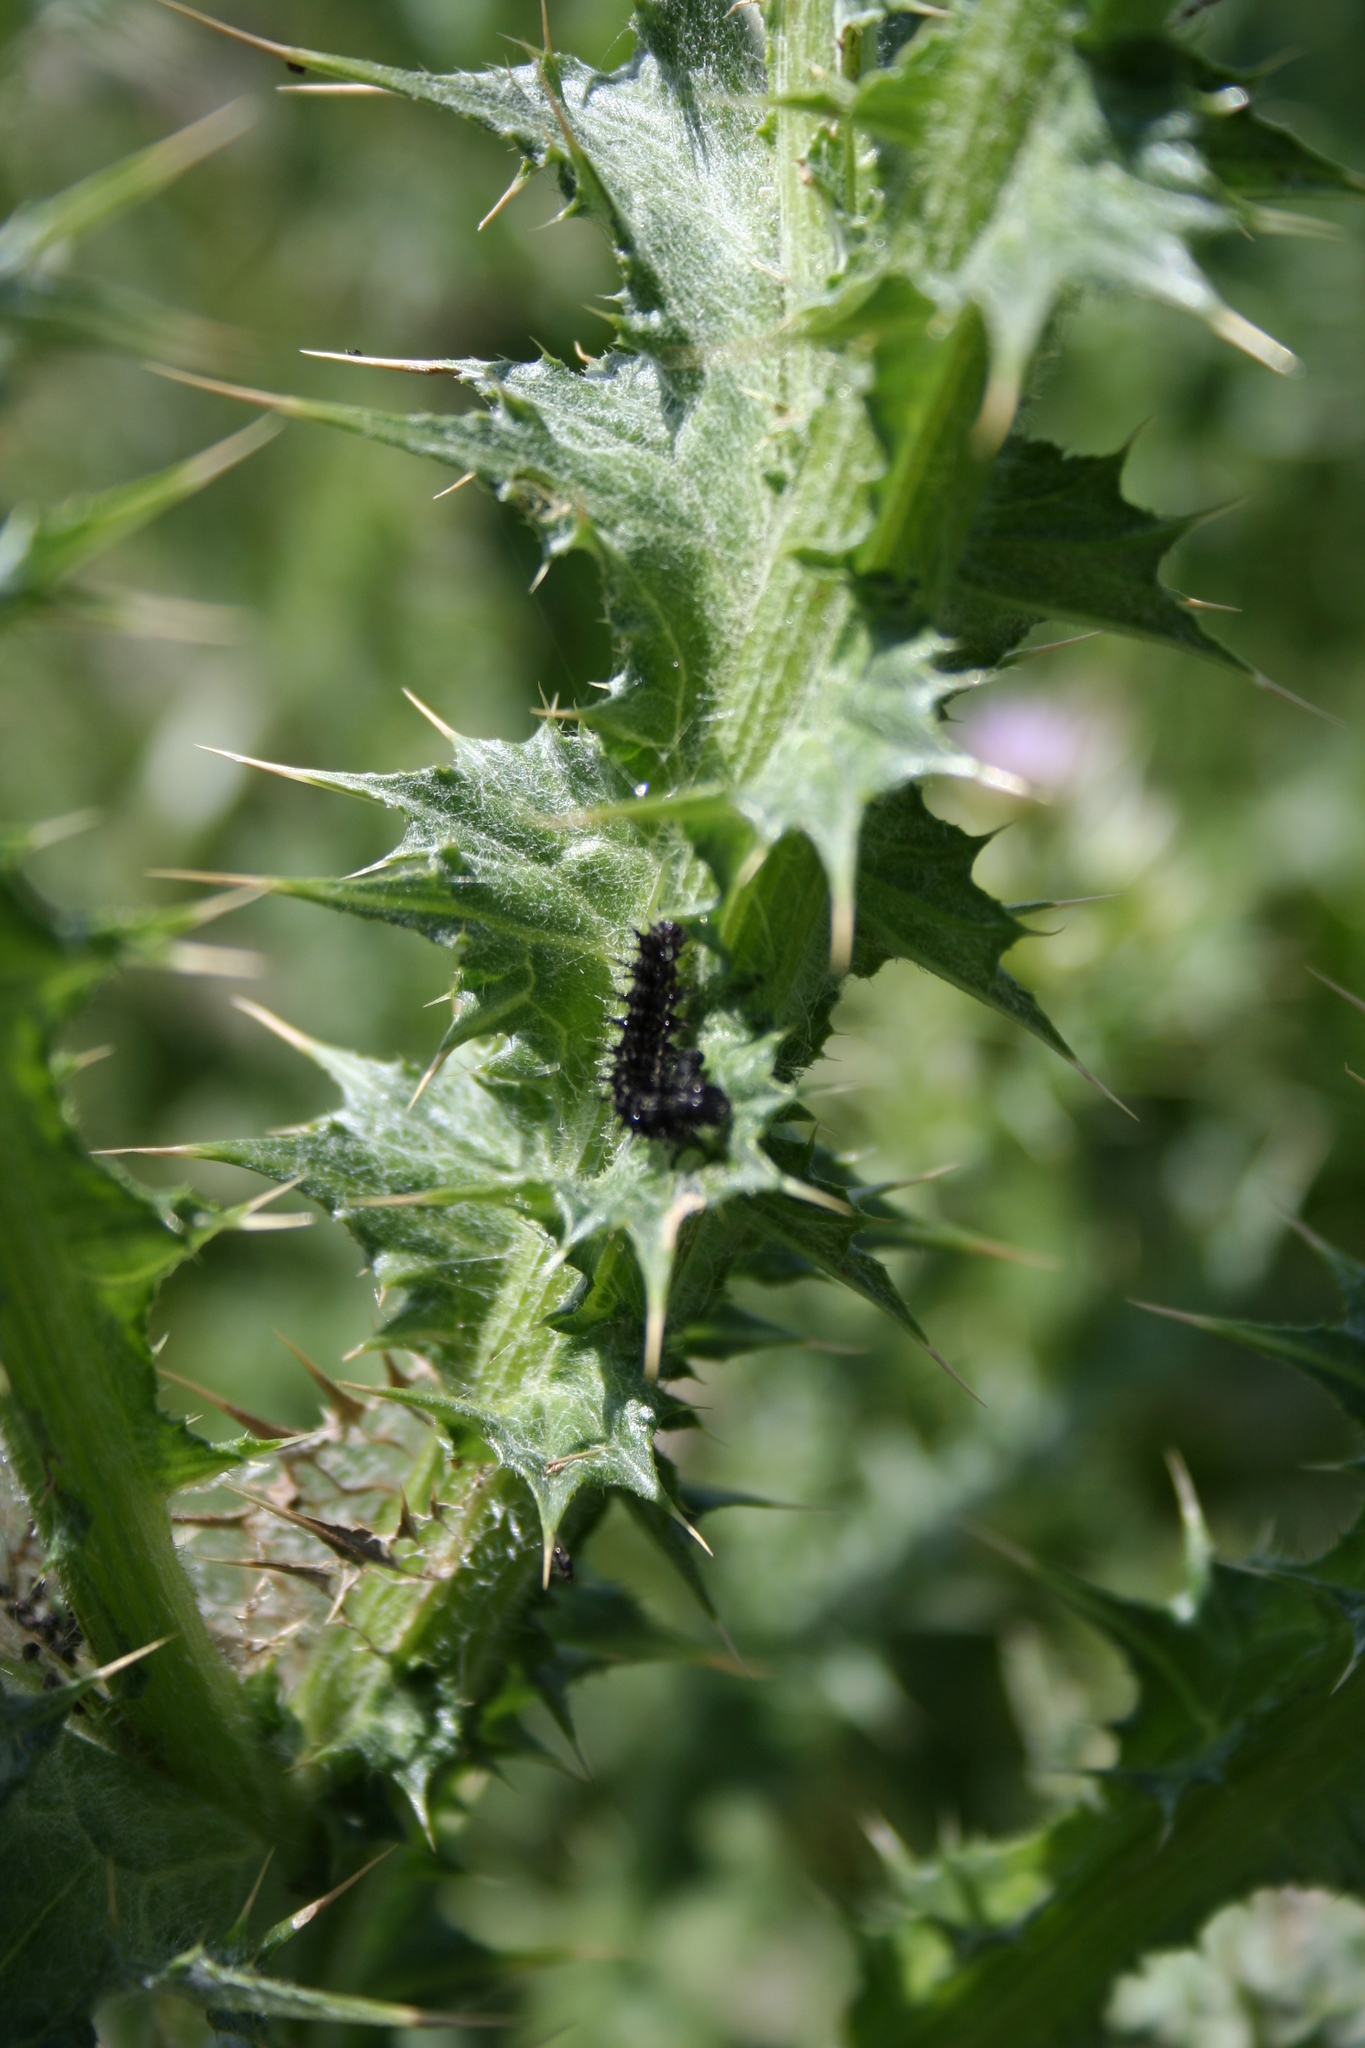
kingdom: Animalia
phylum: Arthropoda
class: Insecta
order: Lepidoptera
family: Nymphalidae
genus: Vanessa
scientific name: Vanessa cardui
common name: Painted lady
